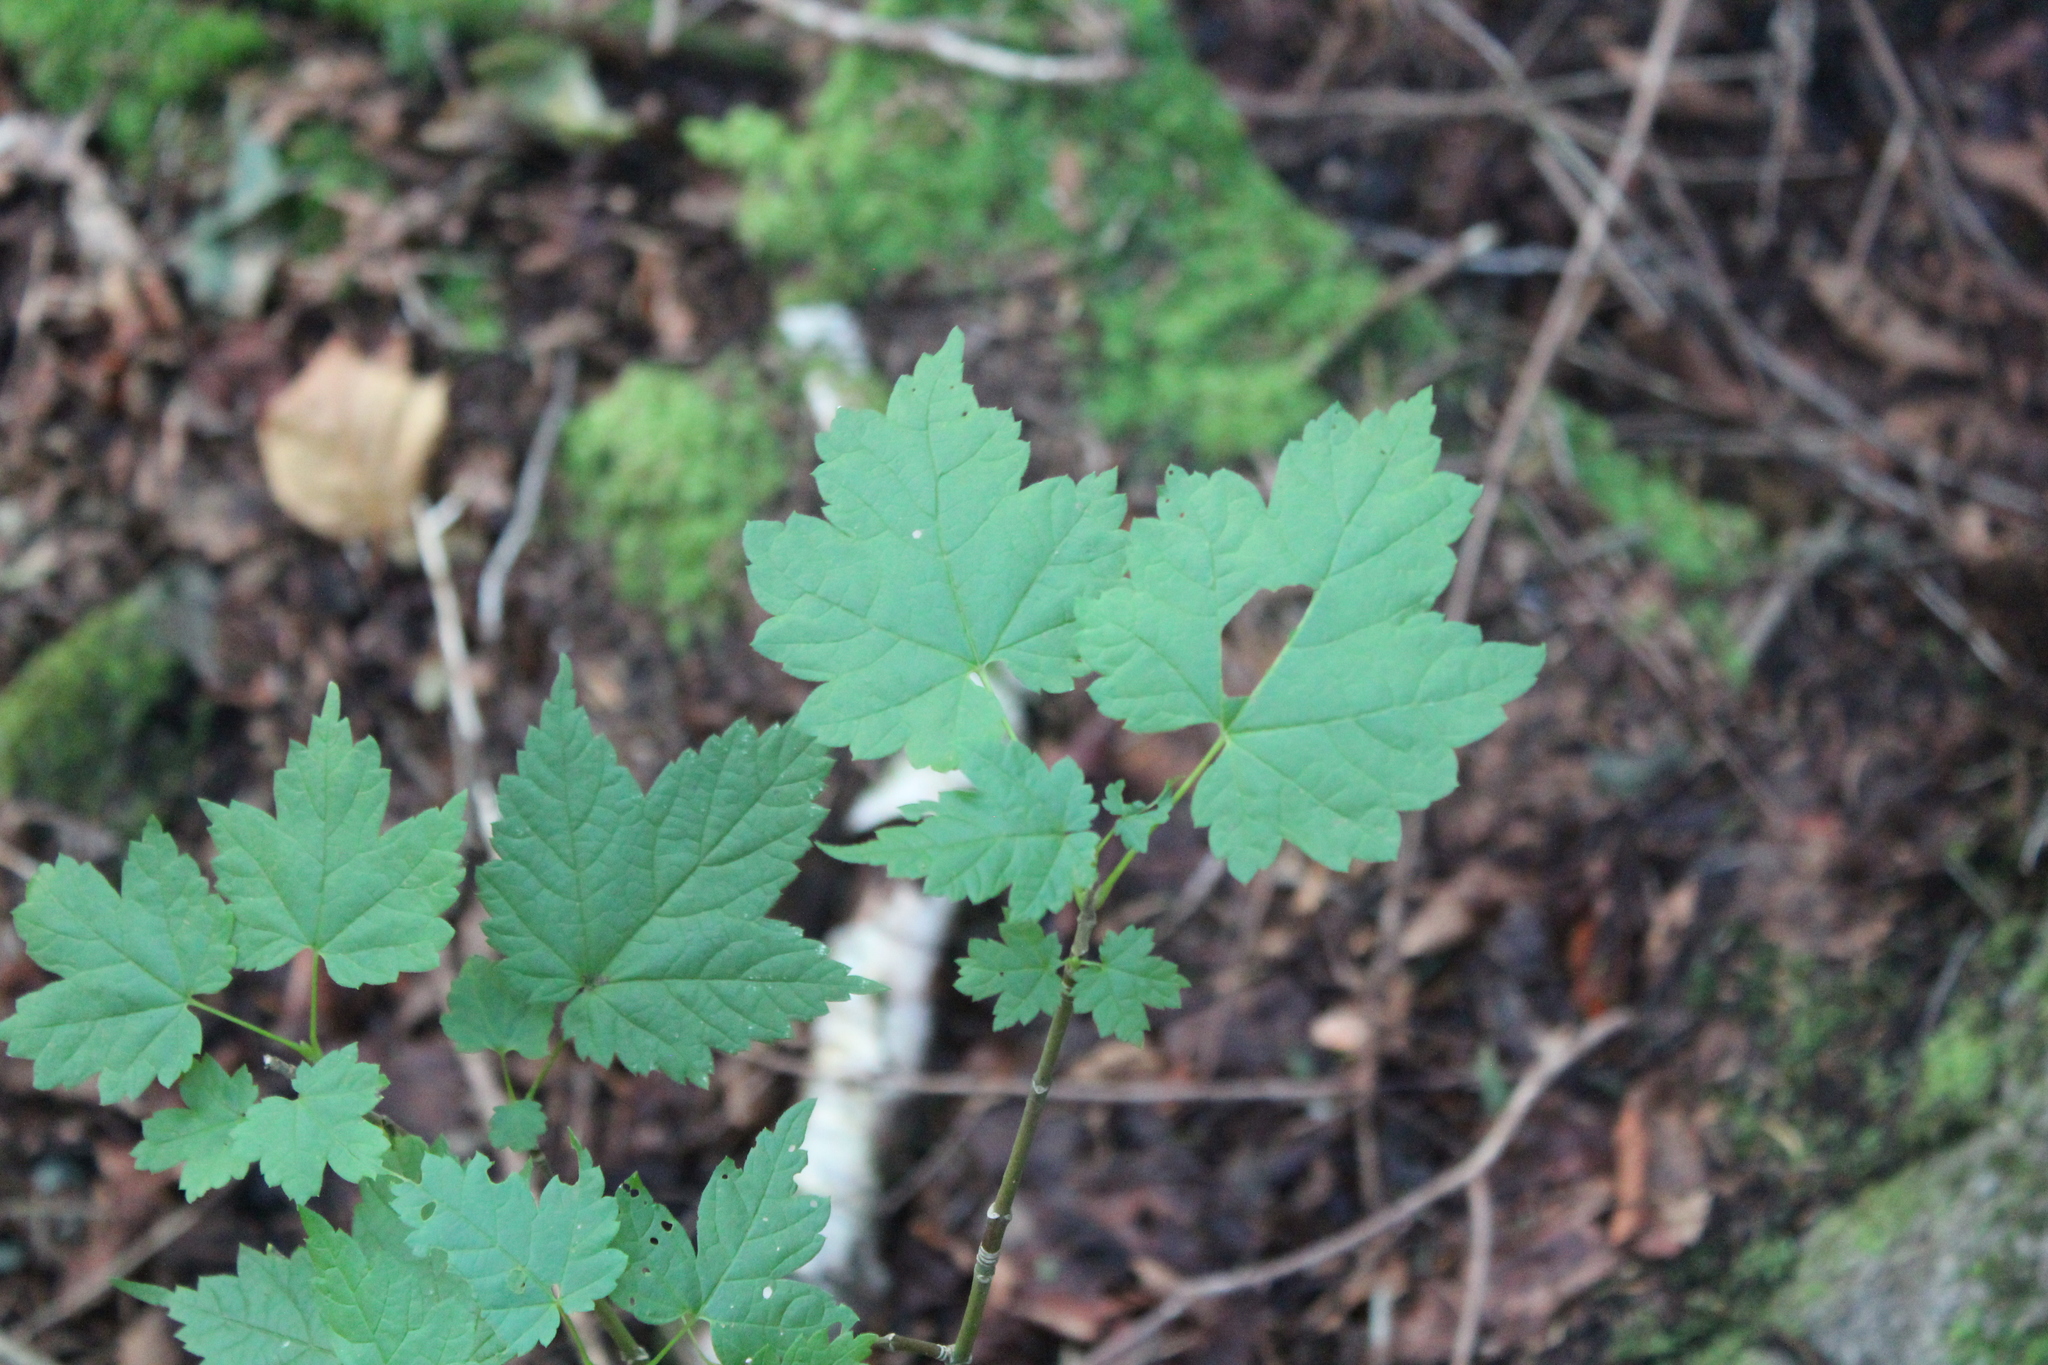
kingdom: Plantae
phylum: Tracheophyta
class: Magnoliopsida
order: Sapindales
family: Sapindaceae
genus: Acer
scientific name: Acer spicatum
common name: Mountain maple
